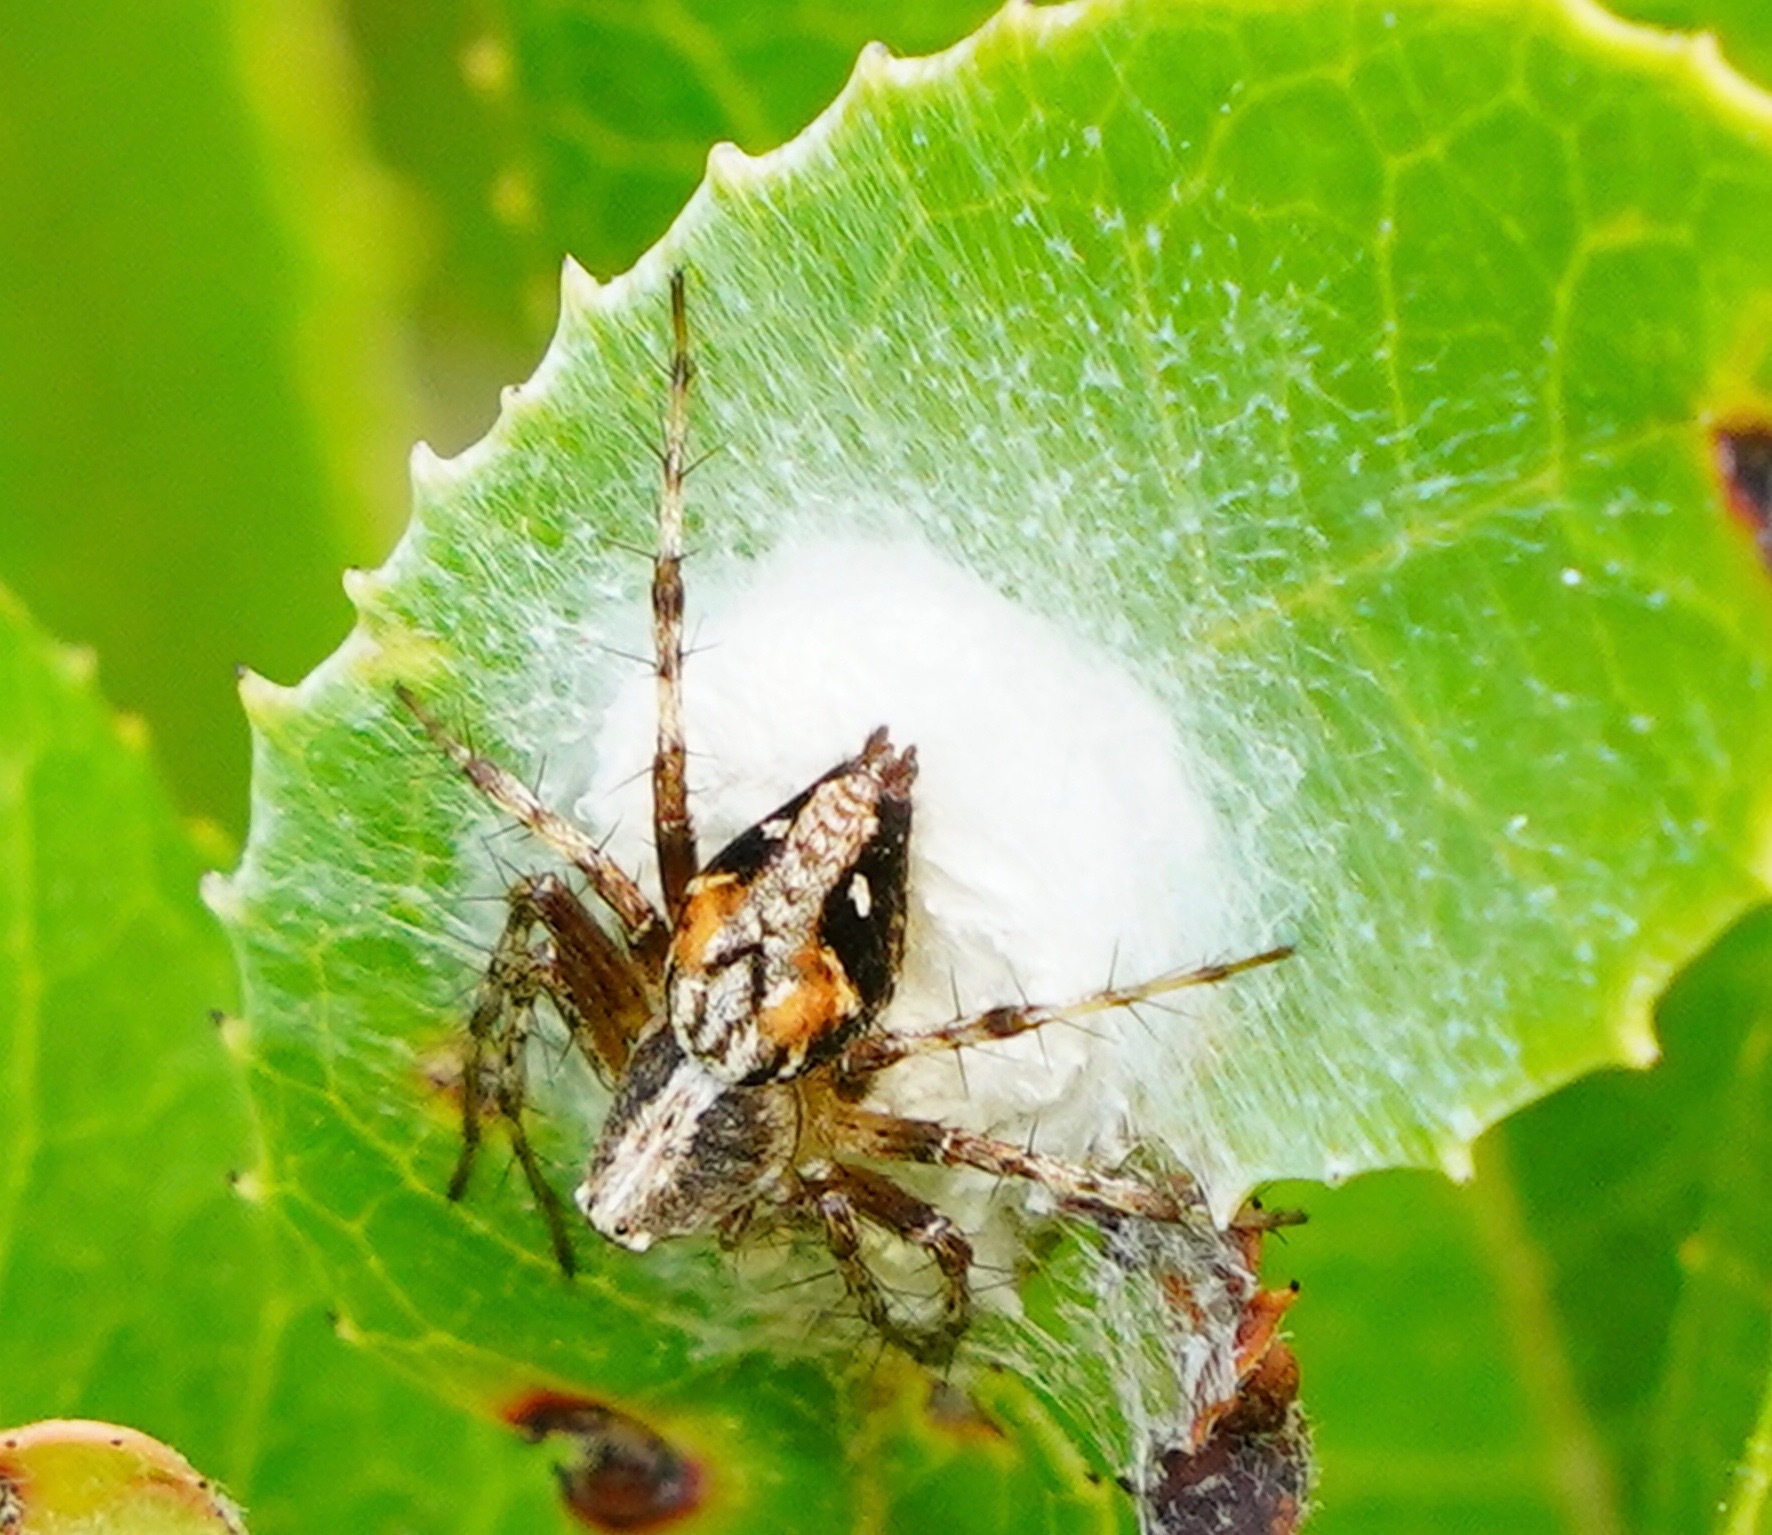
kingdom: Animalia
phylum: Arthropoda
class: Arachnida
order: Araneae
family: Oxyopidae
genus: Oxyopes
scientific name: Oxyopes scalaris
